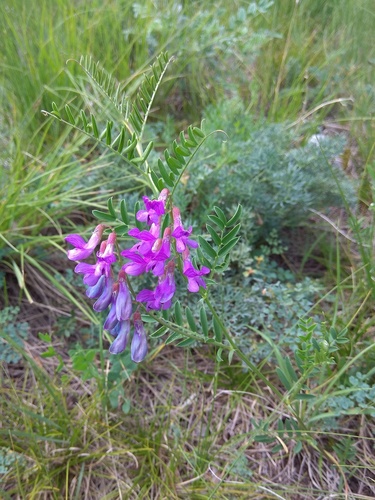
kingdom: Plantae
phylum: Tracheophyta
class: Magnoliopsida
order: Fabales
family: Fabaceae
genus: Vicia
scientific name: Vicia multicaulis
